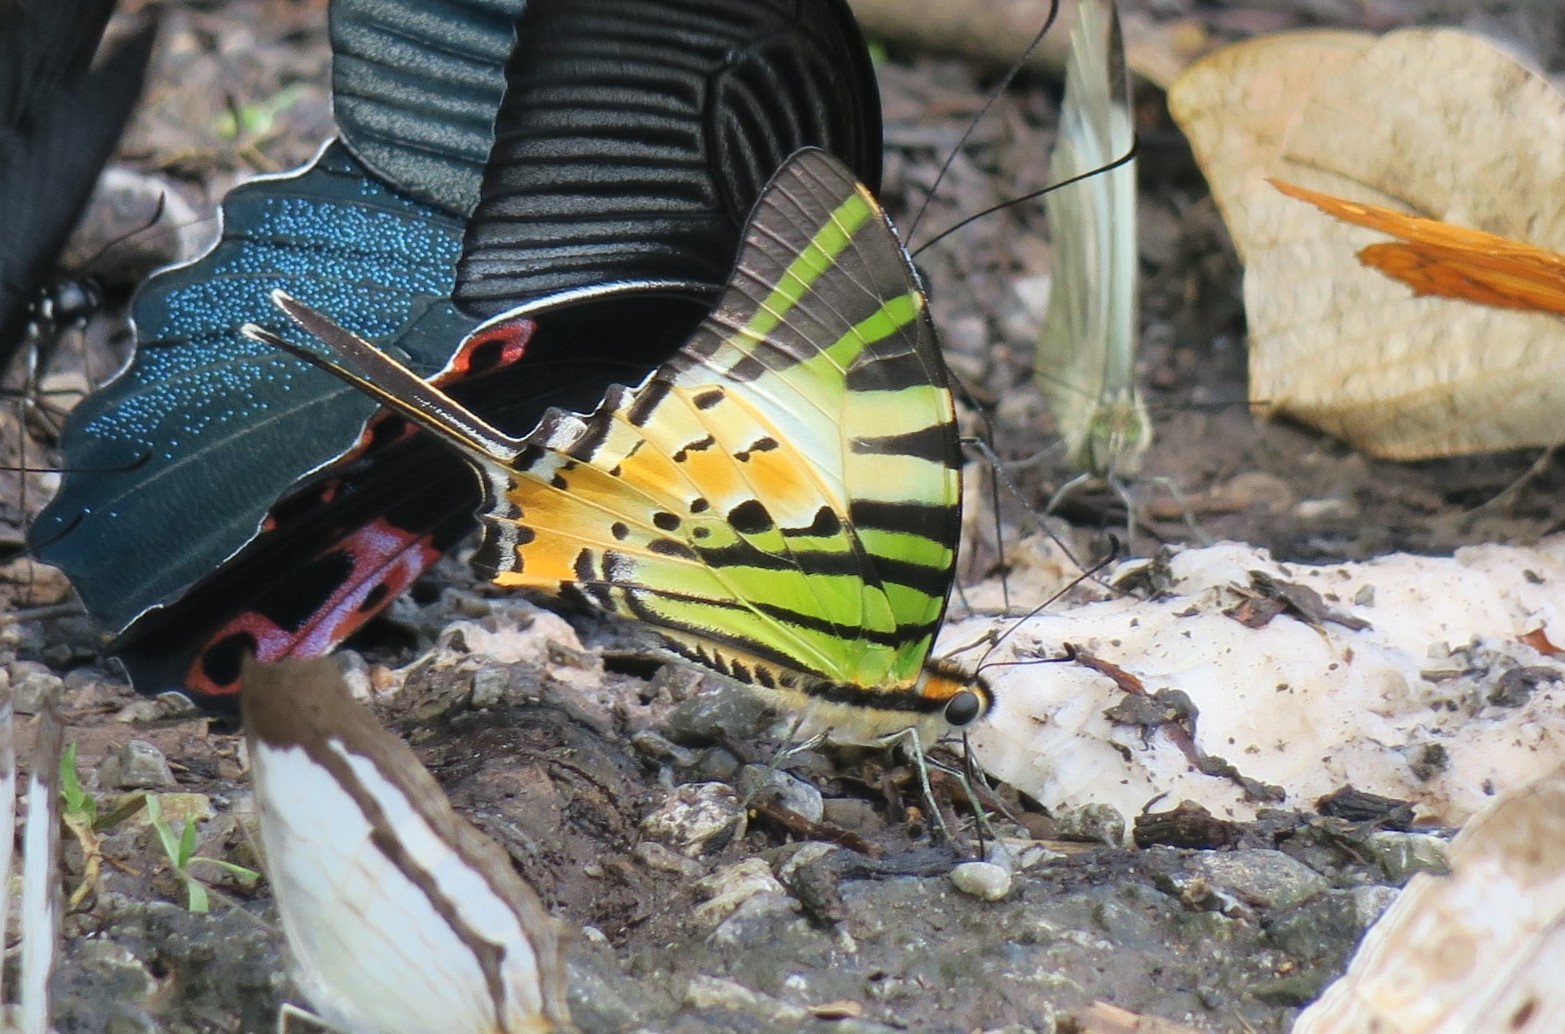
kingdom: Animalia
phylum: Arthropoda
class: Insecta
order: Lepidoptera
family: Papilionidae
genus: Graphium
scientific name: Graphium antiphates
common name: Fivebar swordtail
